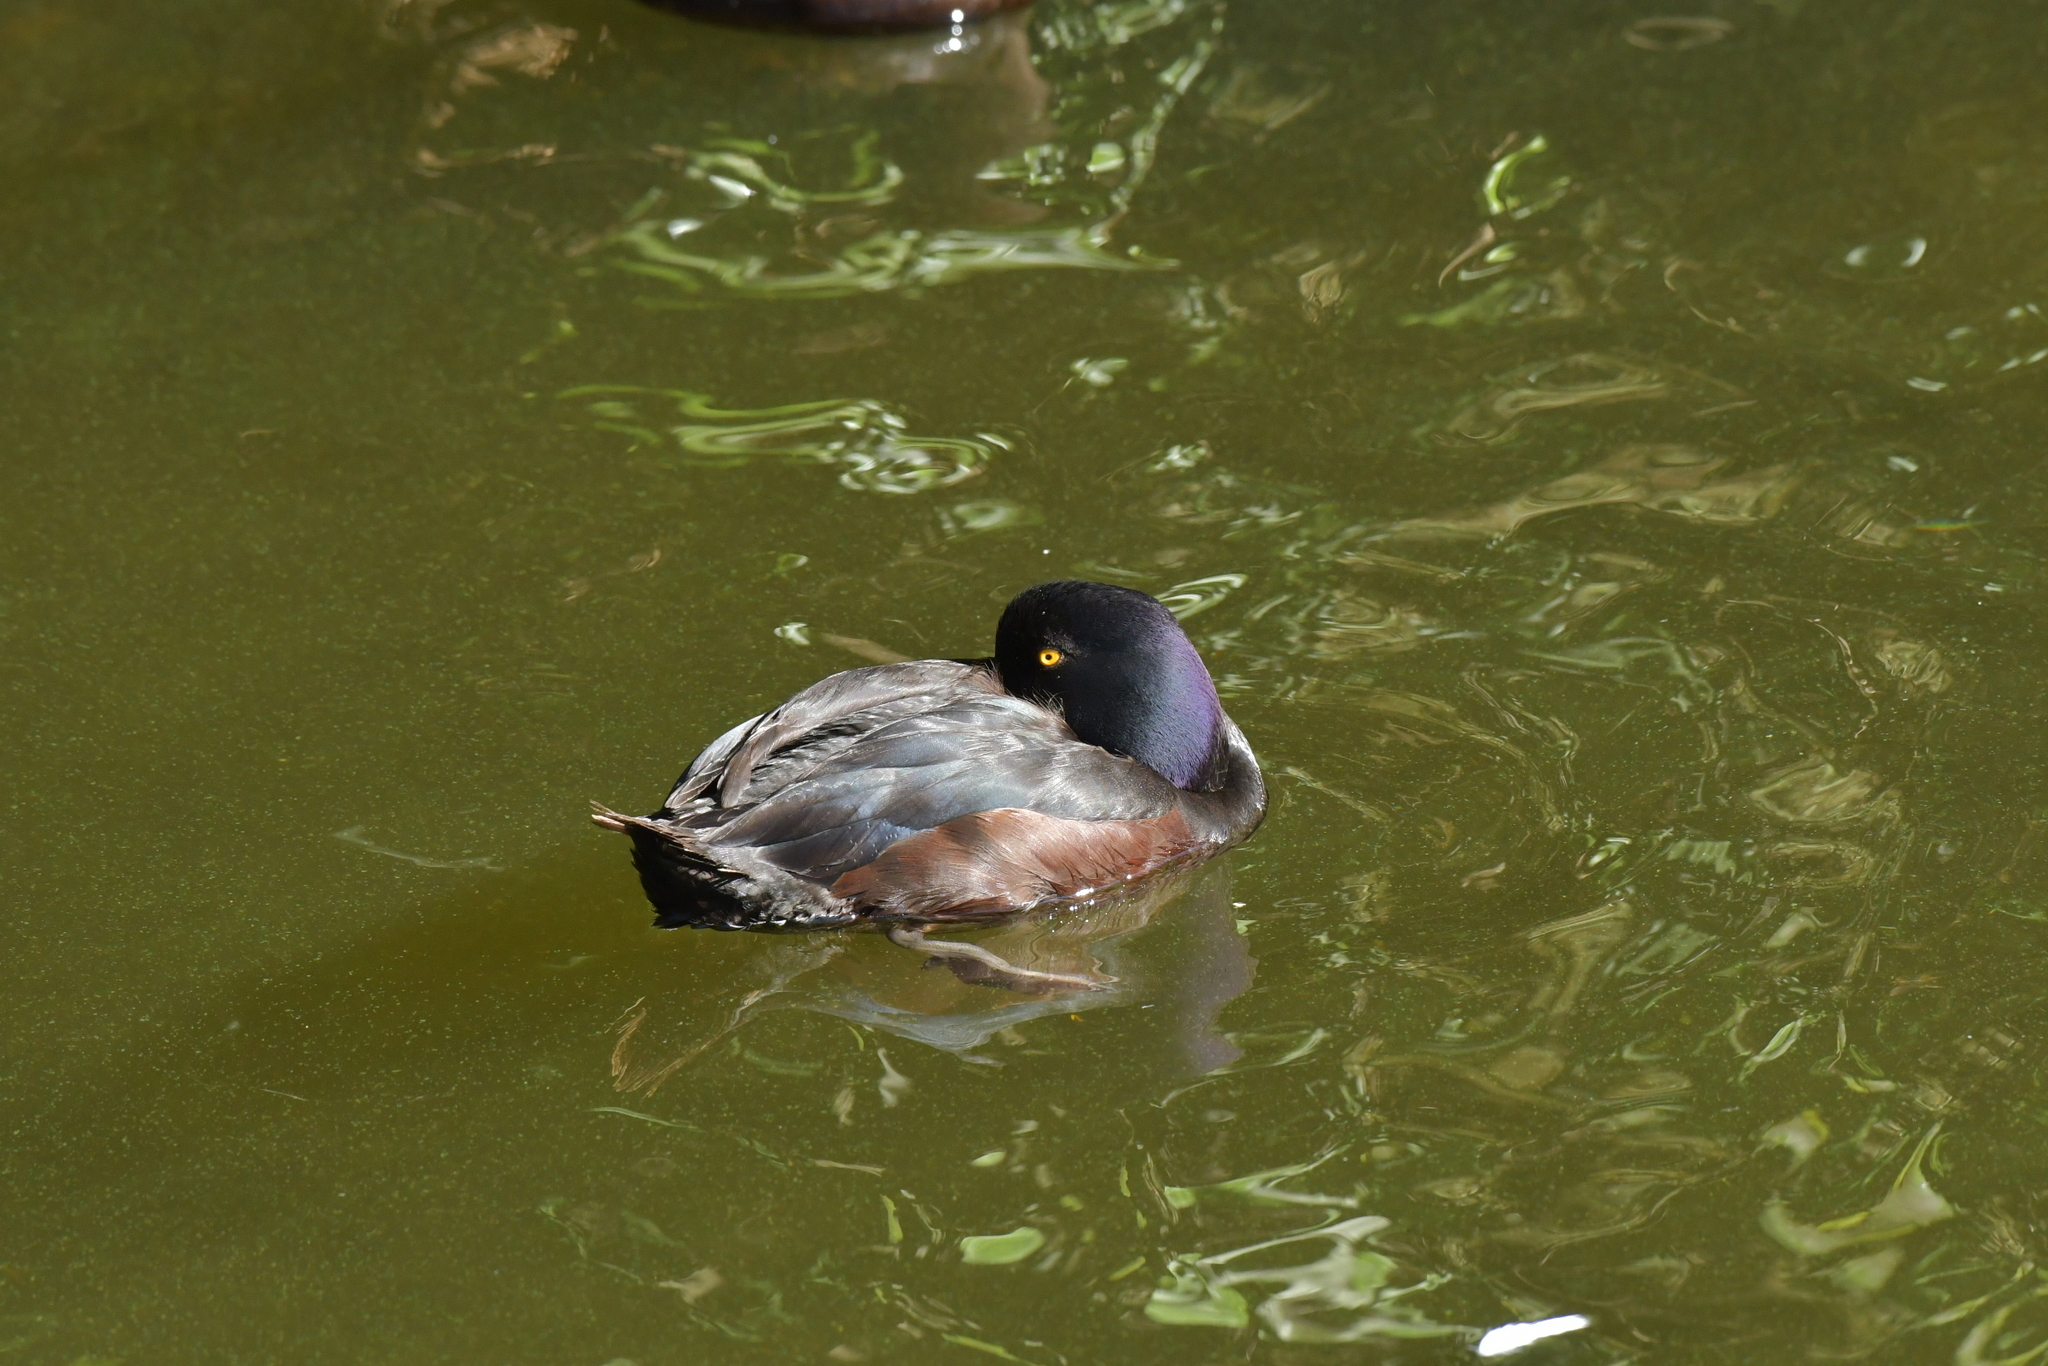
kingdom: Animalia
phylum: Chordata
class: Aves
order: Anseriformes
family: Anatidae
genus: Aythya
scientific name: Aythya novaeseelandiae
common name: New zealand scaup
